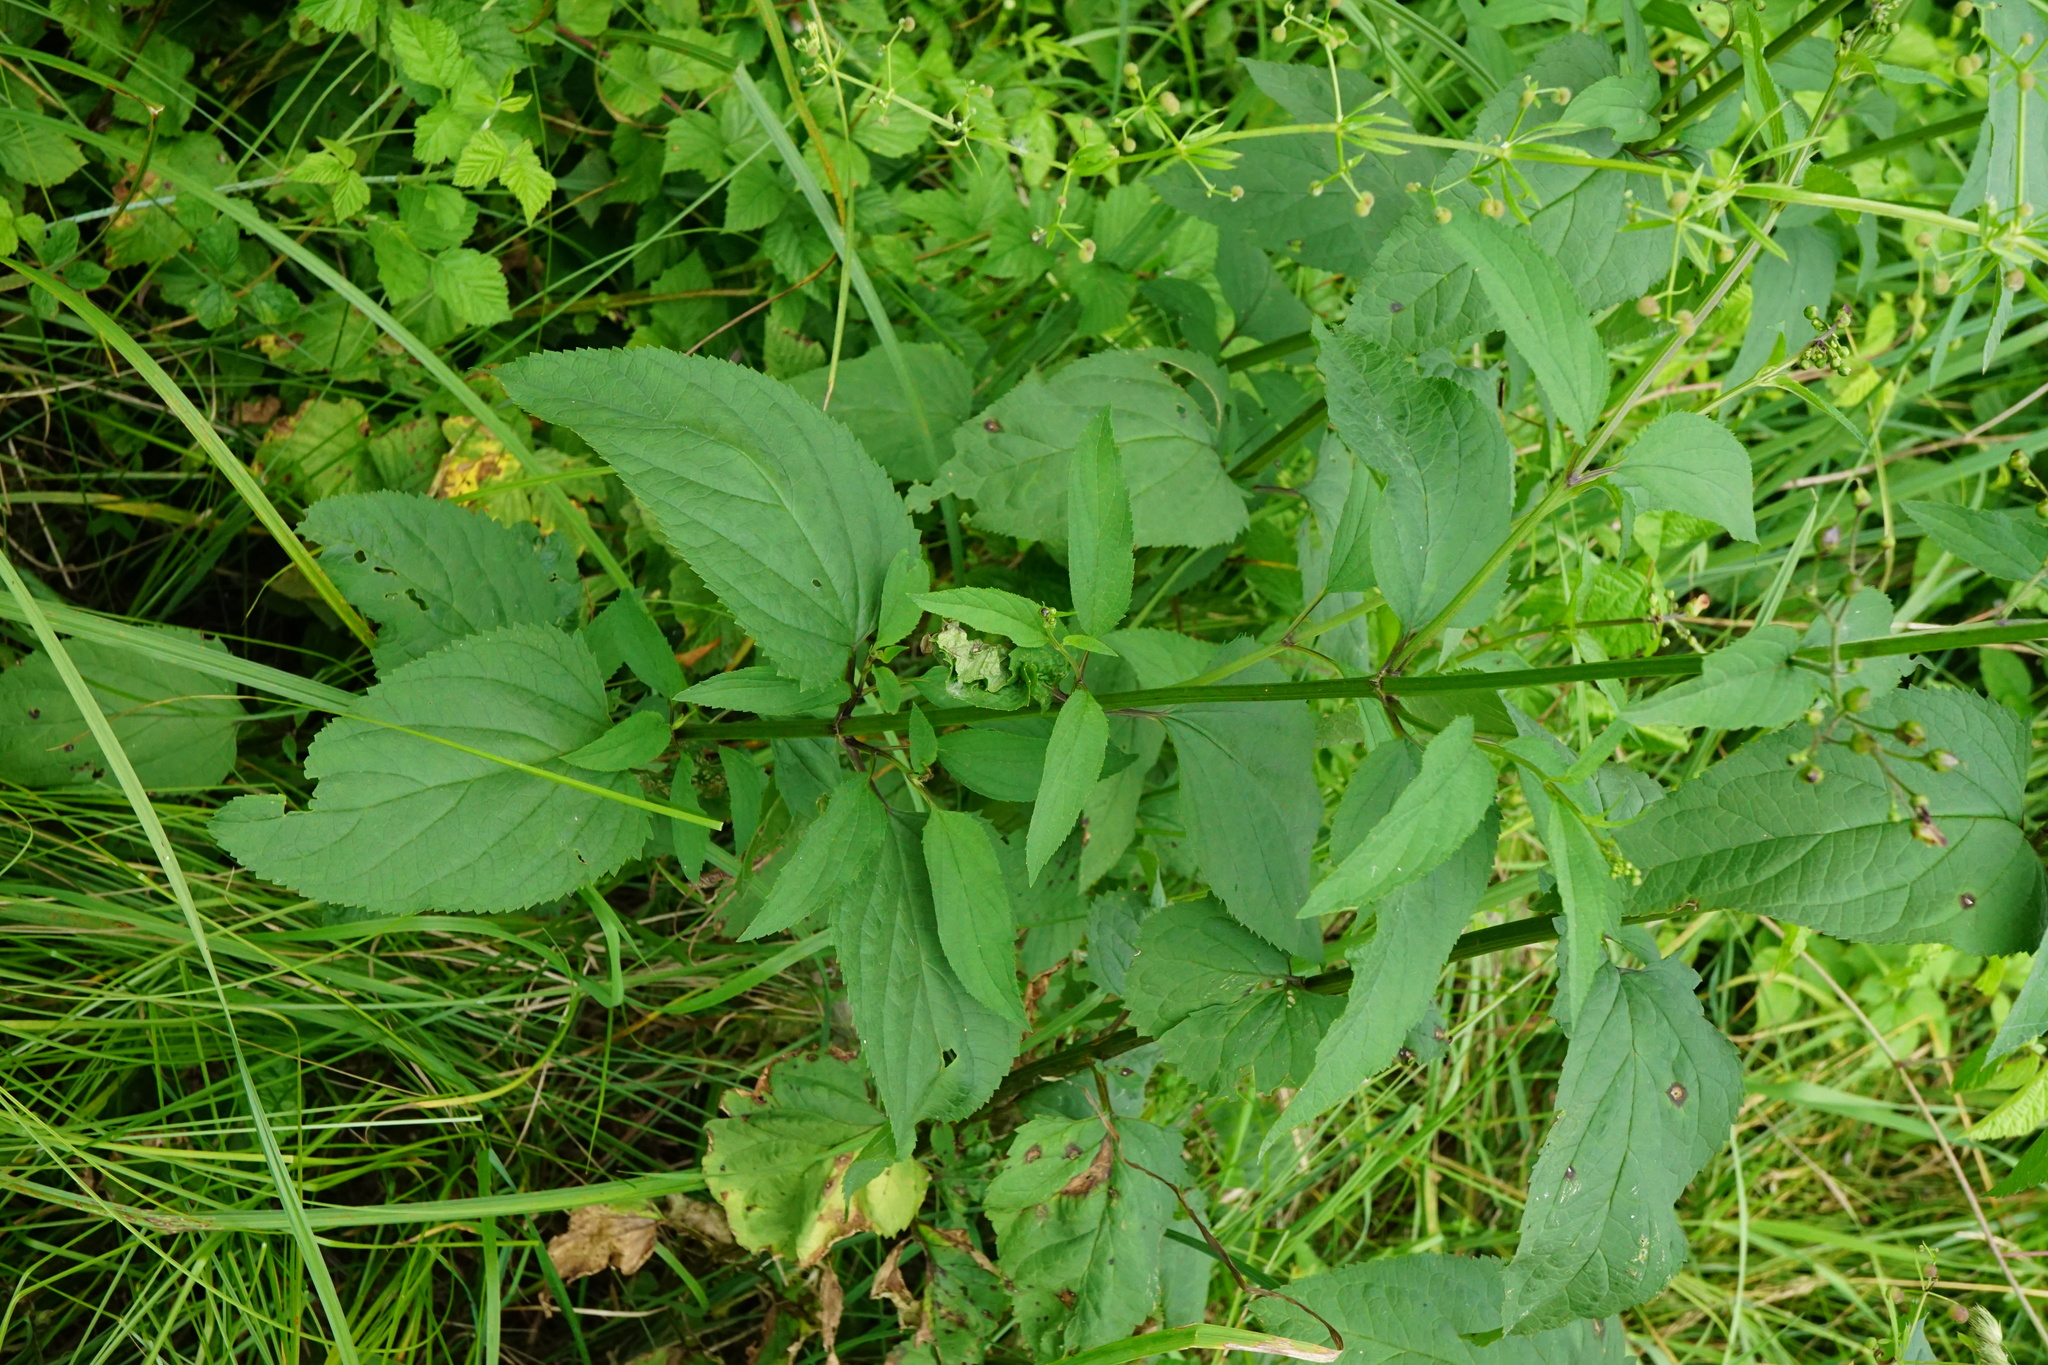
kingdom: Plantae
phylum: Tracheophyta
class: Magnoliopsida
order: Lamiales
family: Scrophulariaceae
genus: Scrophularia
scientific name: Scrophularia nodosa
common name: Common figwort
